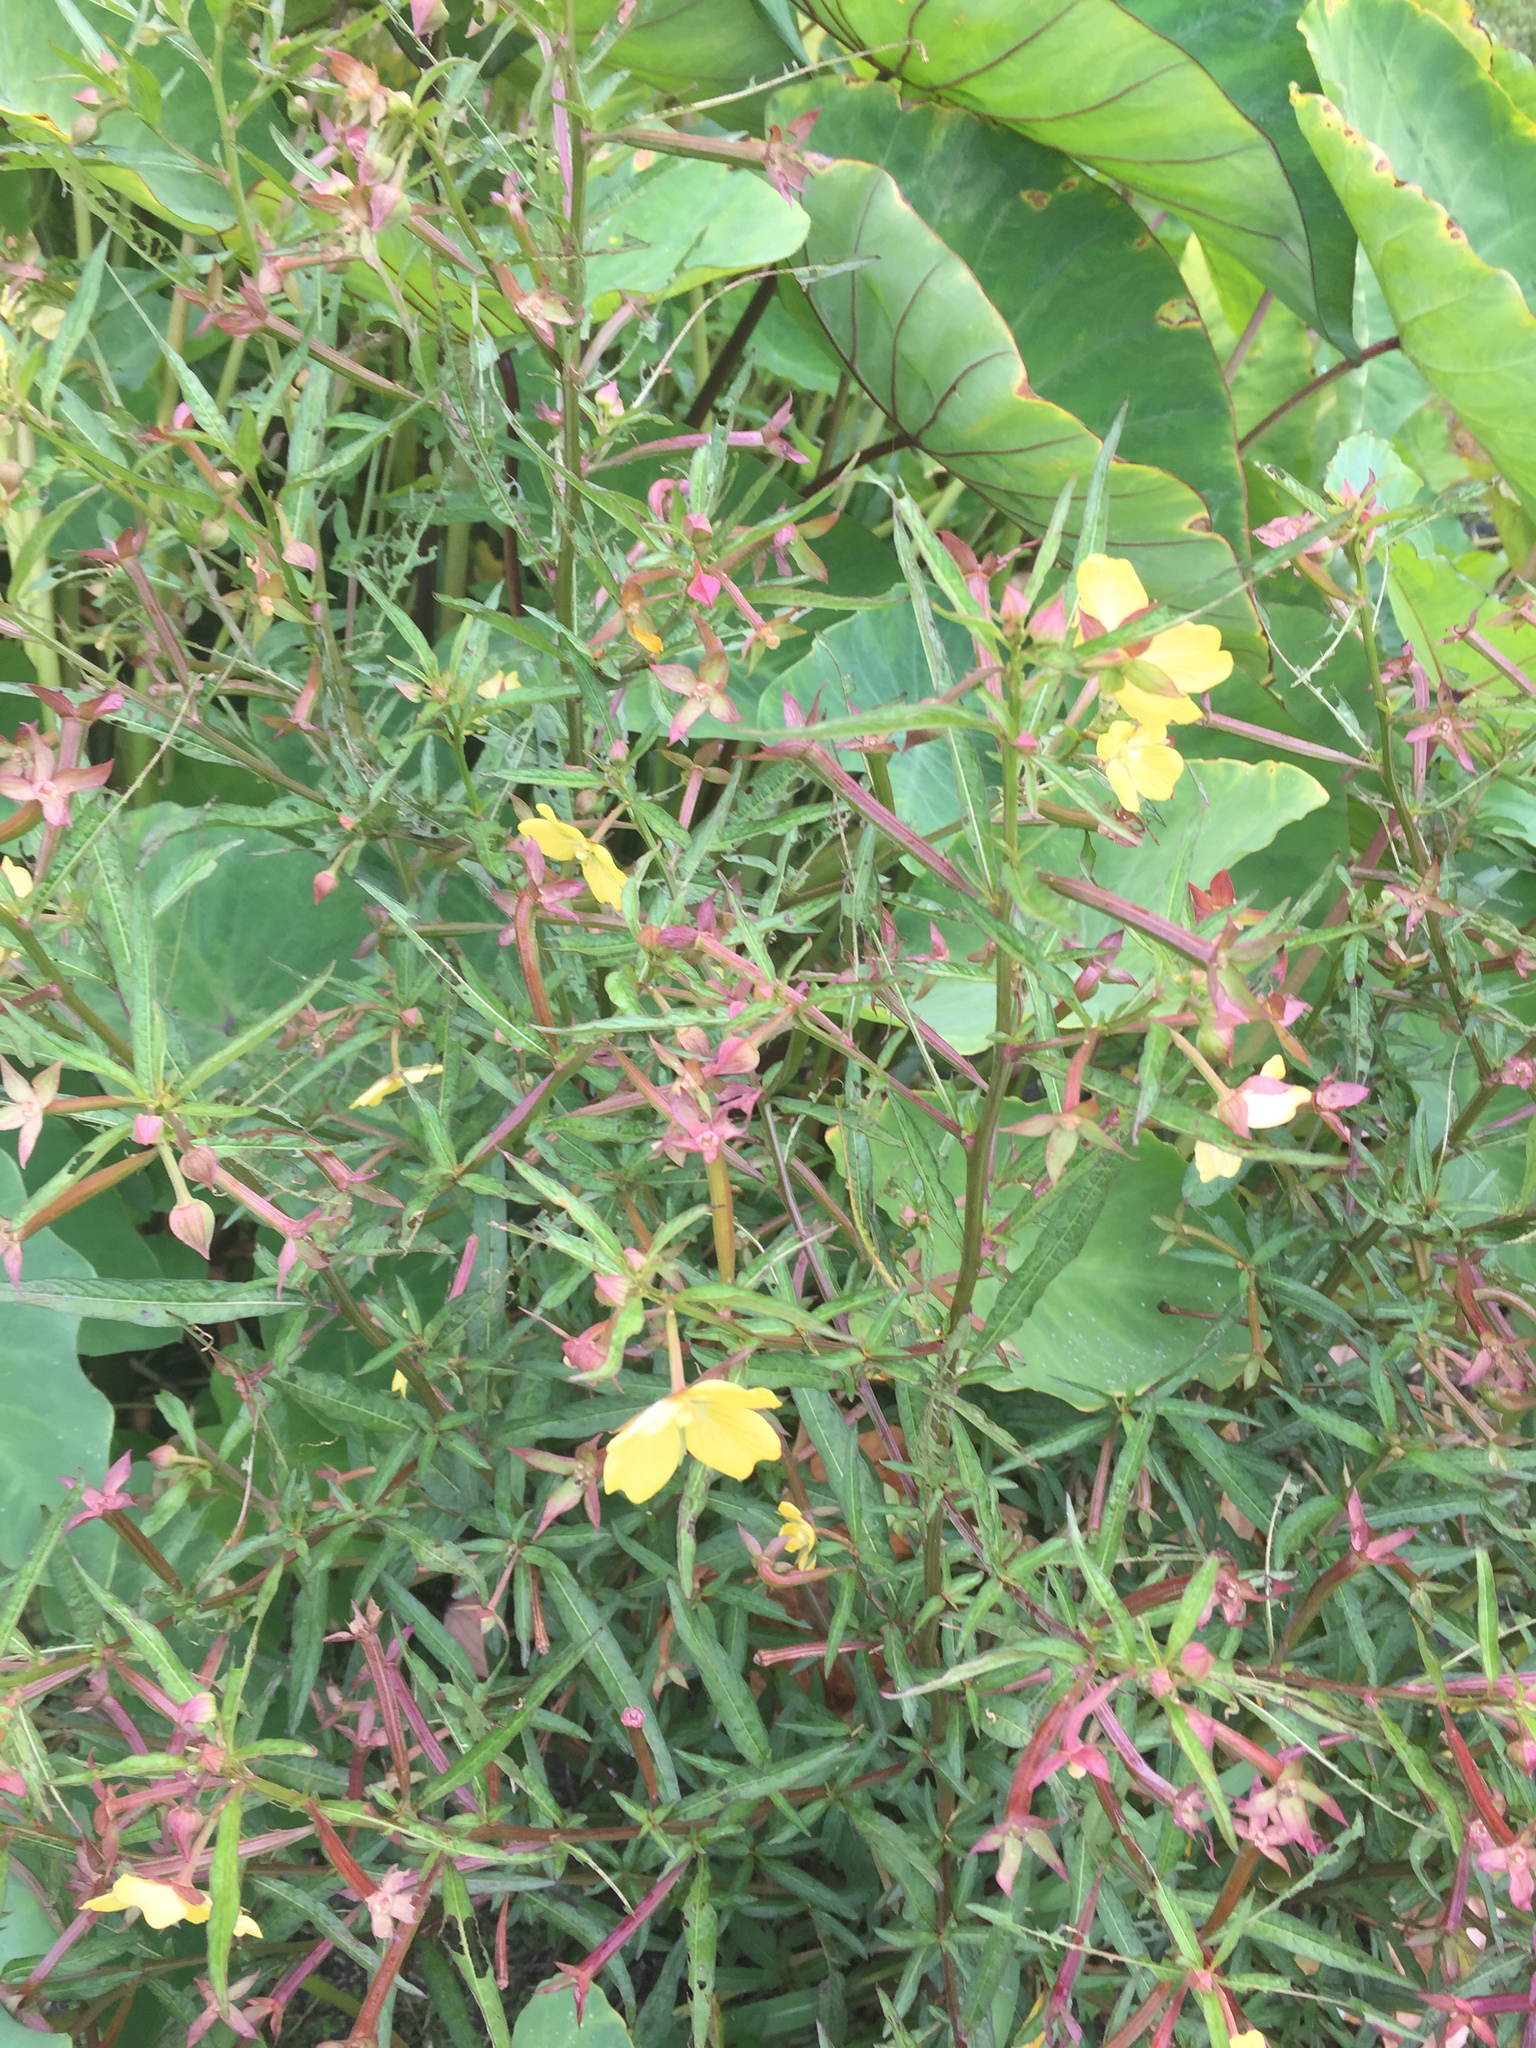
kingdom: Plantae
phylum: Tracheophyta
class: Magnoliopsida
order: Myrtales
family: Onagraceae
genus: Ludwigia
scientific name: Ludwigia octovalvis
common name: Water-primrose
